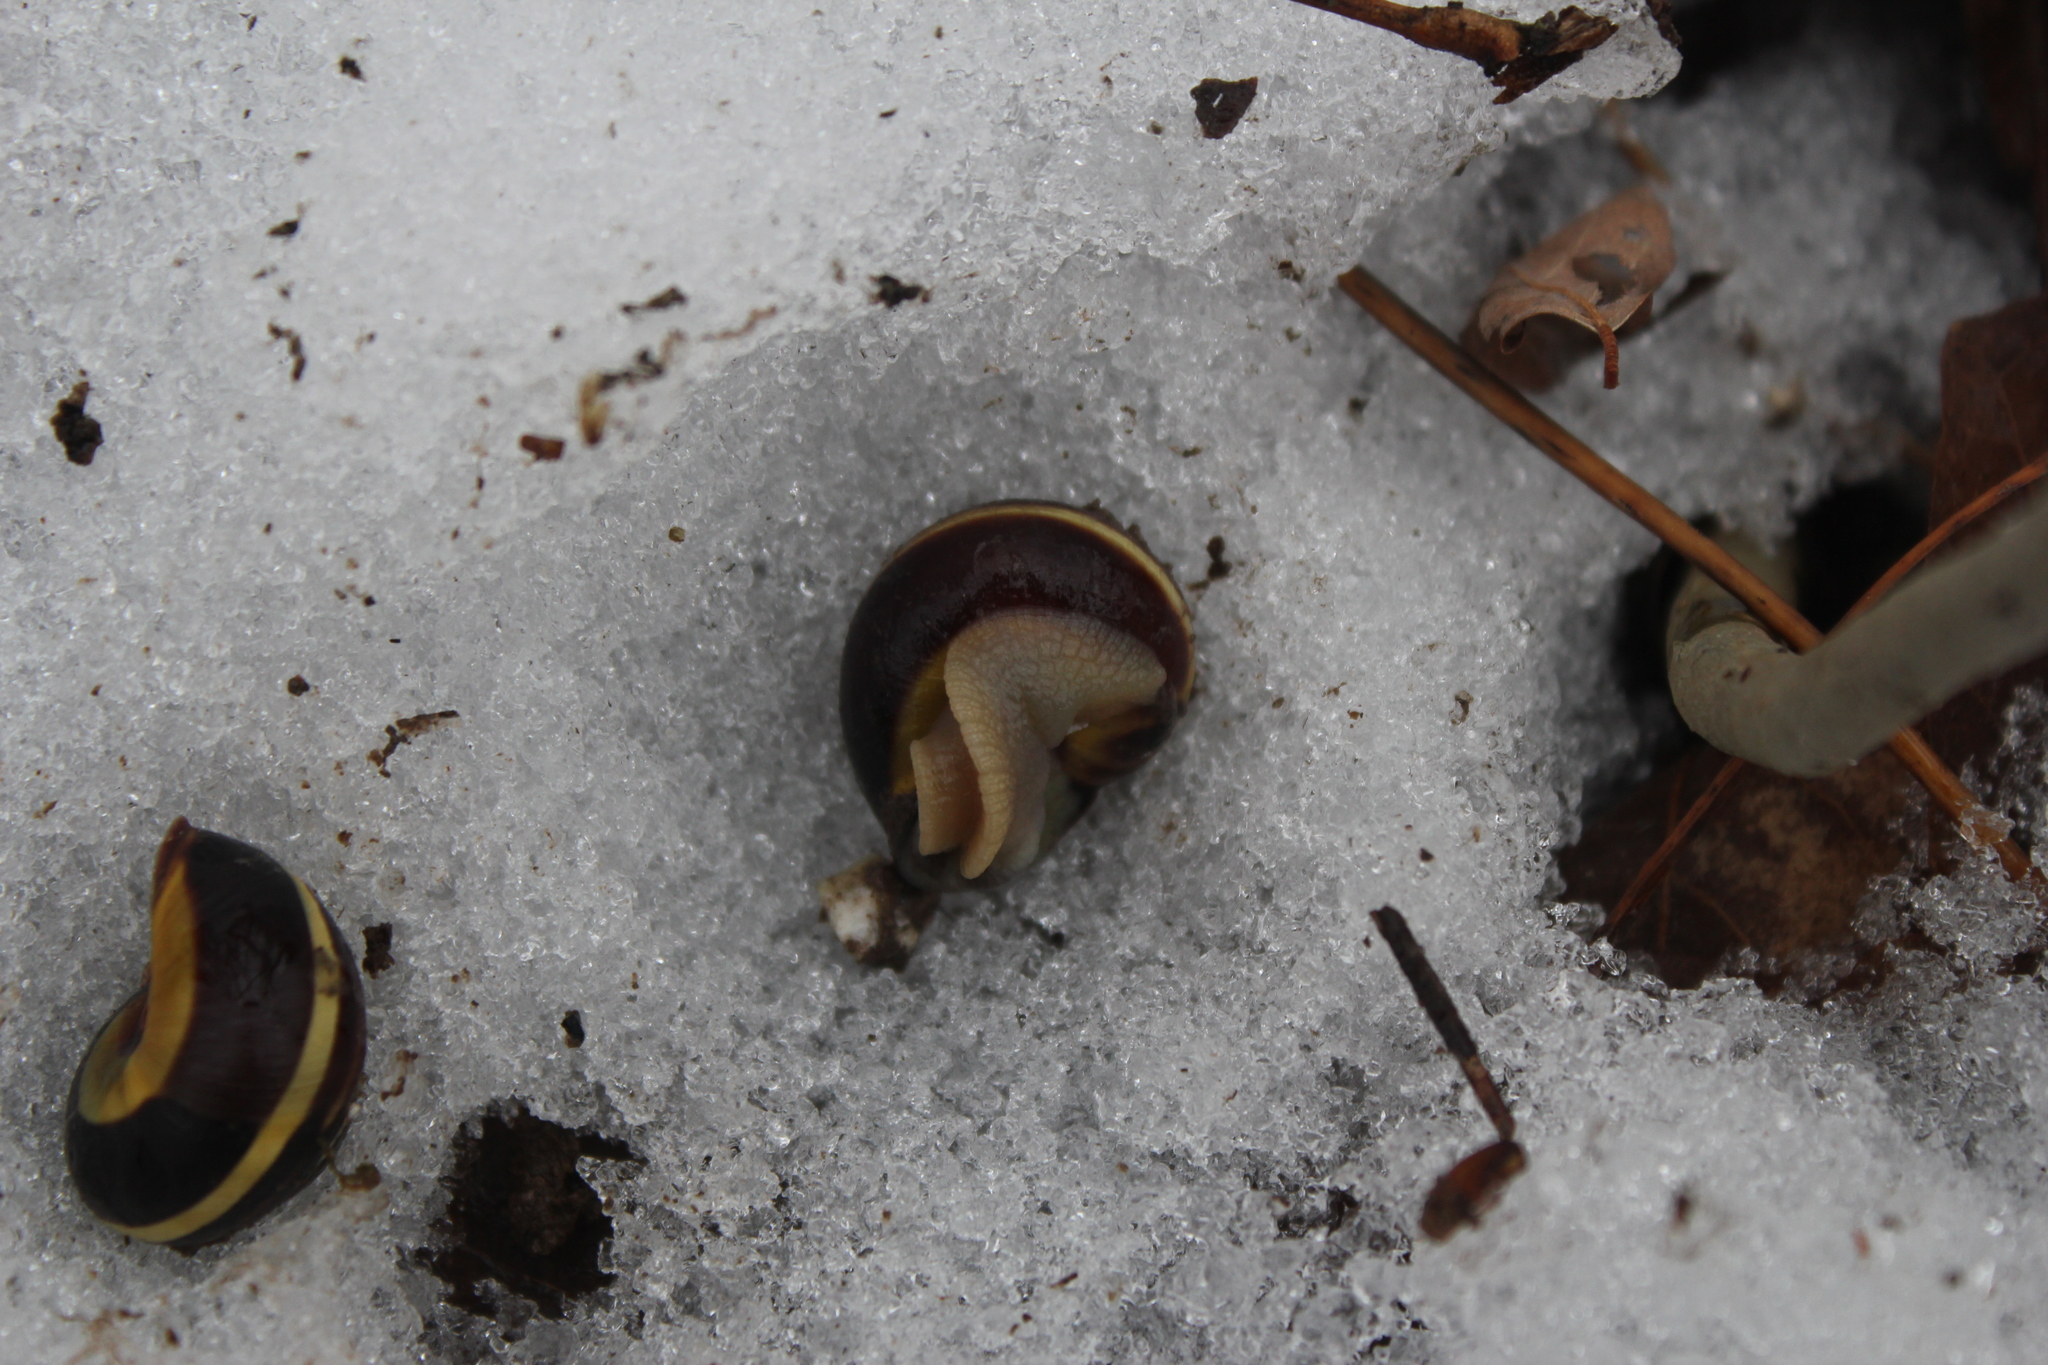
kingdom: Animalia
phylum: Mollusca
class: Gastropoda
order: Stylommatophora
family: Helicidae
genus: Cepaea
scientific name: Cepaea nemoralis
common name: Grovesnail
